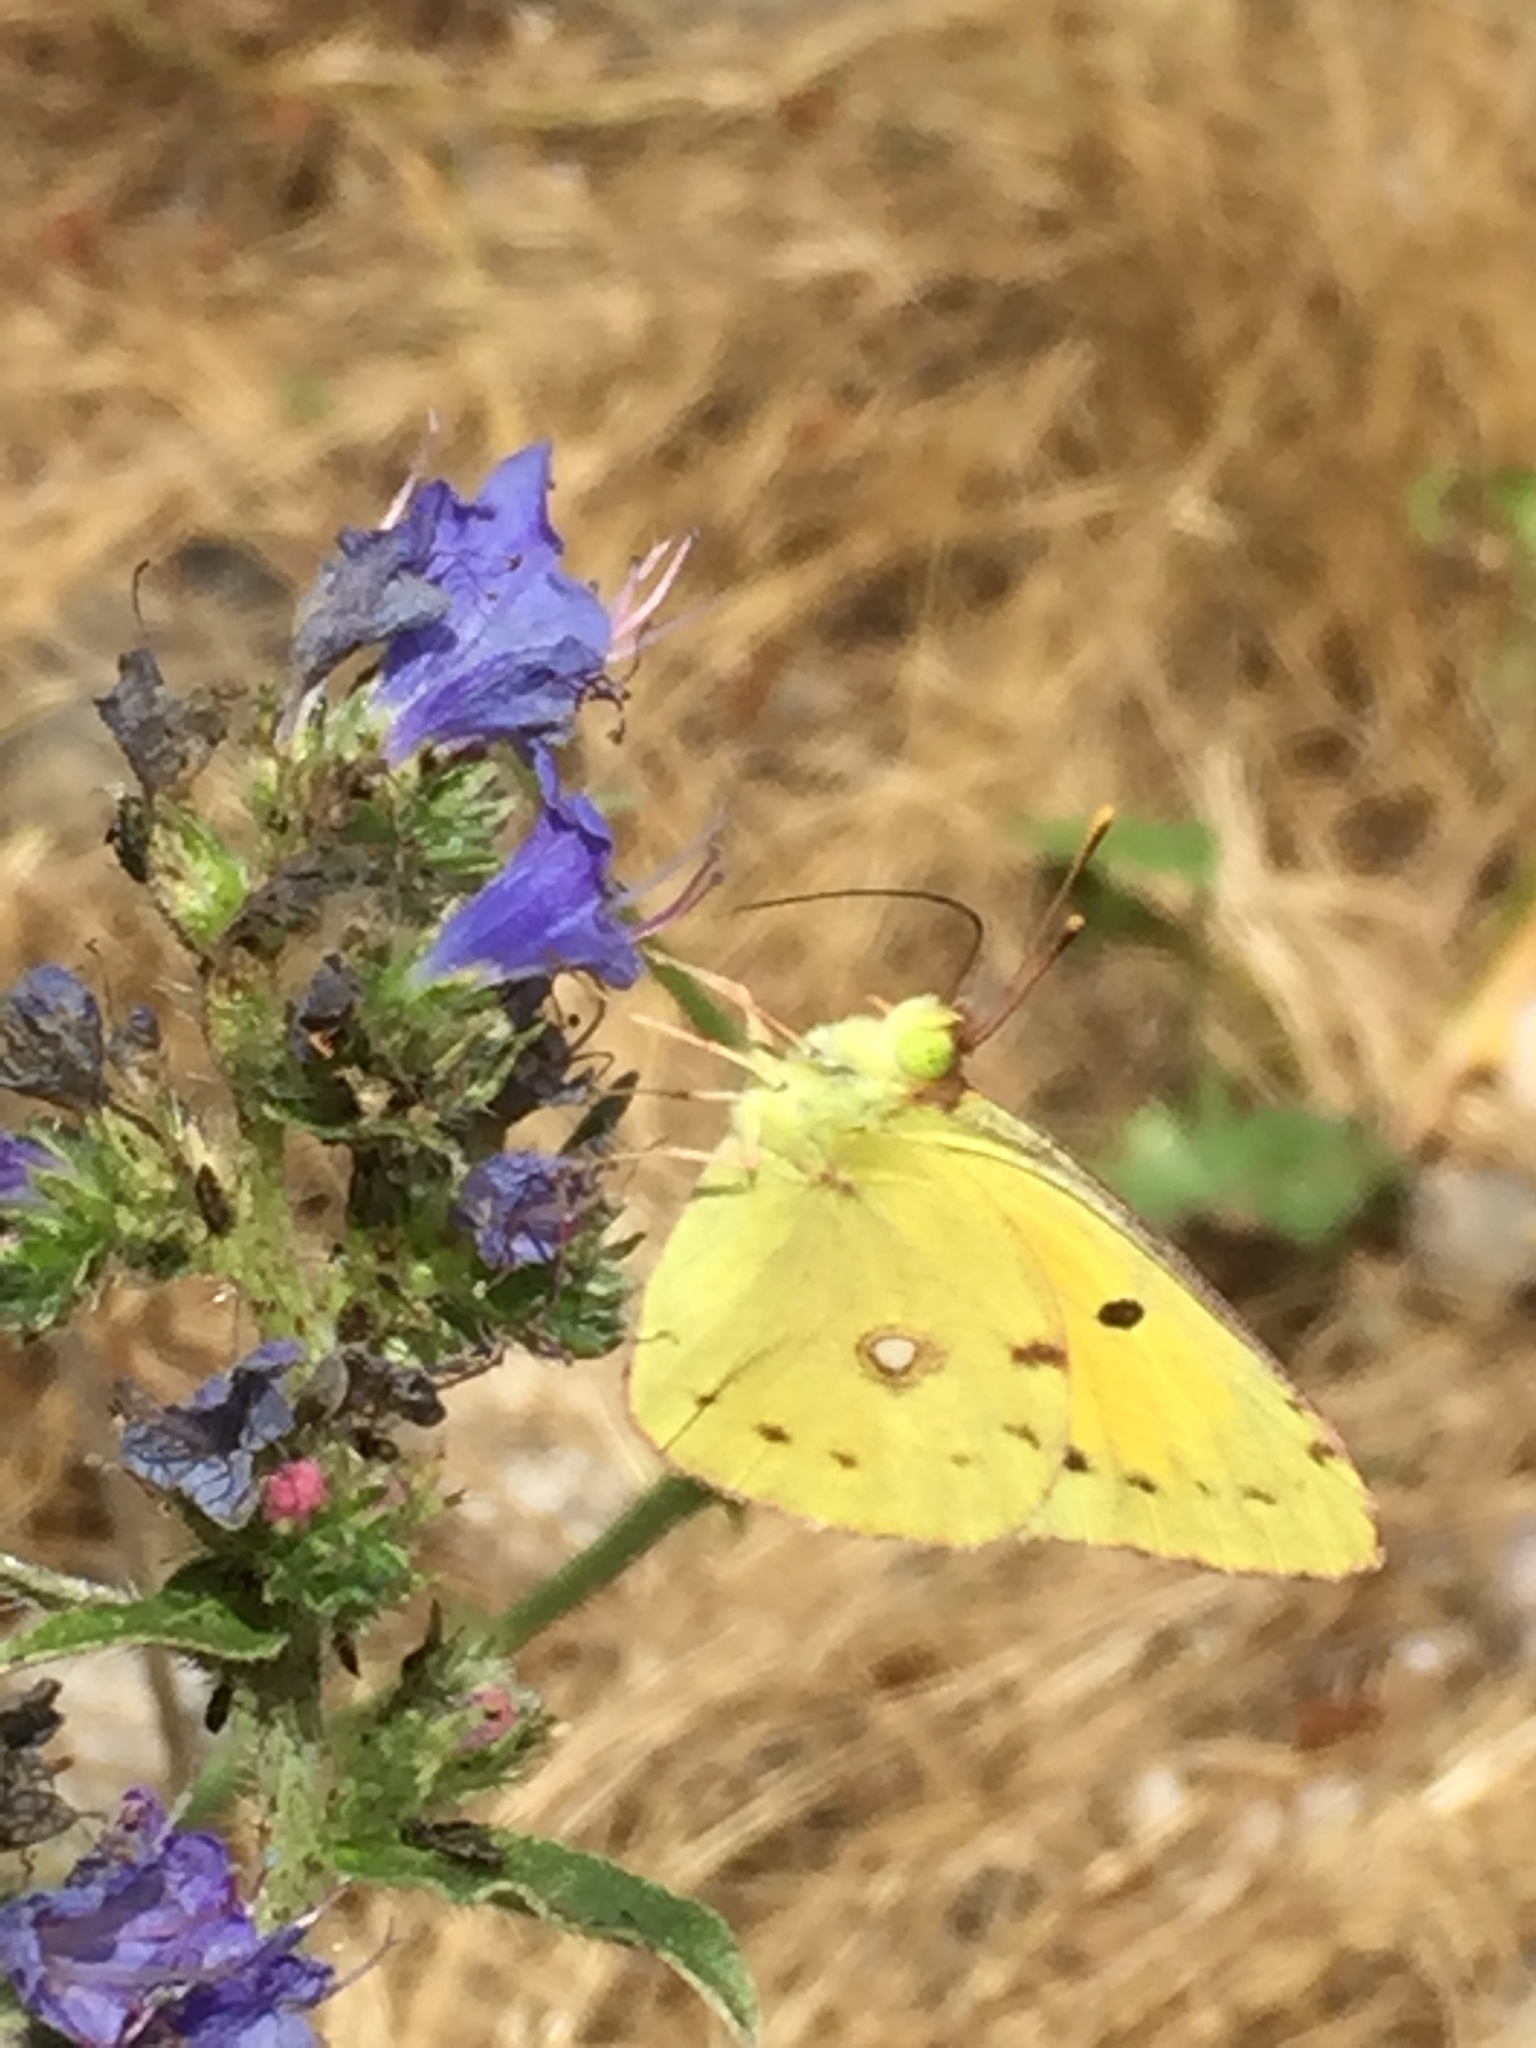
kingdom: Plantae
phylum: Tracheophyta
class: Magnoliopsida
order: Boraginales
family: Boraginaceae
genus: Echium
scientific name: Echium vulgare
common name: Common viper's bugloss
